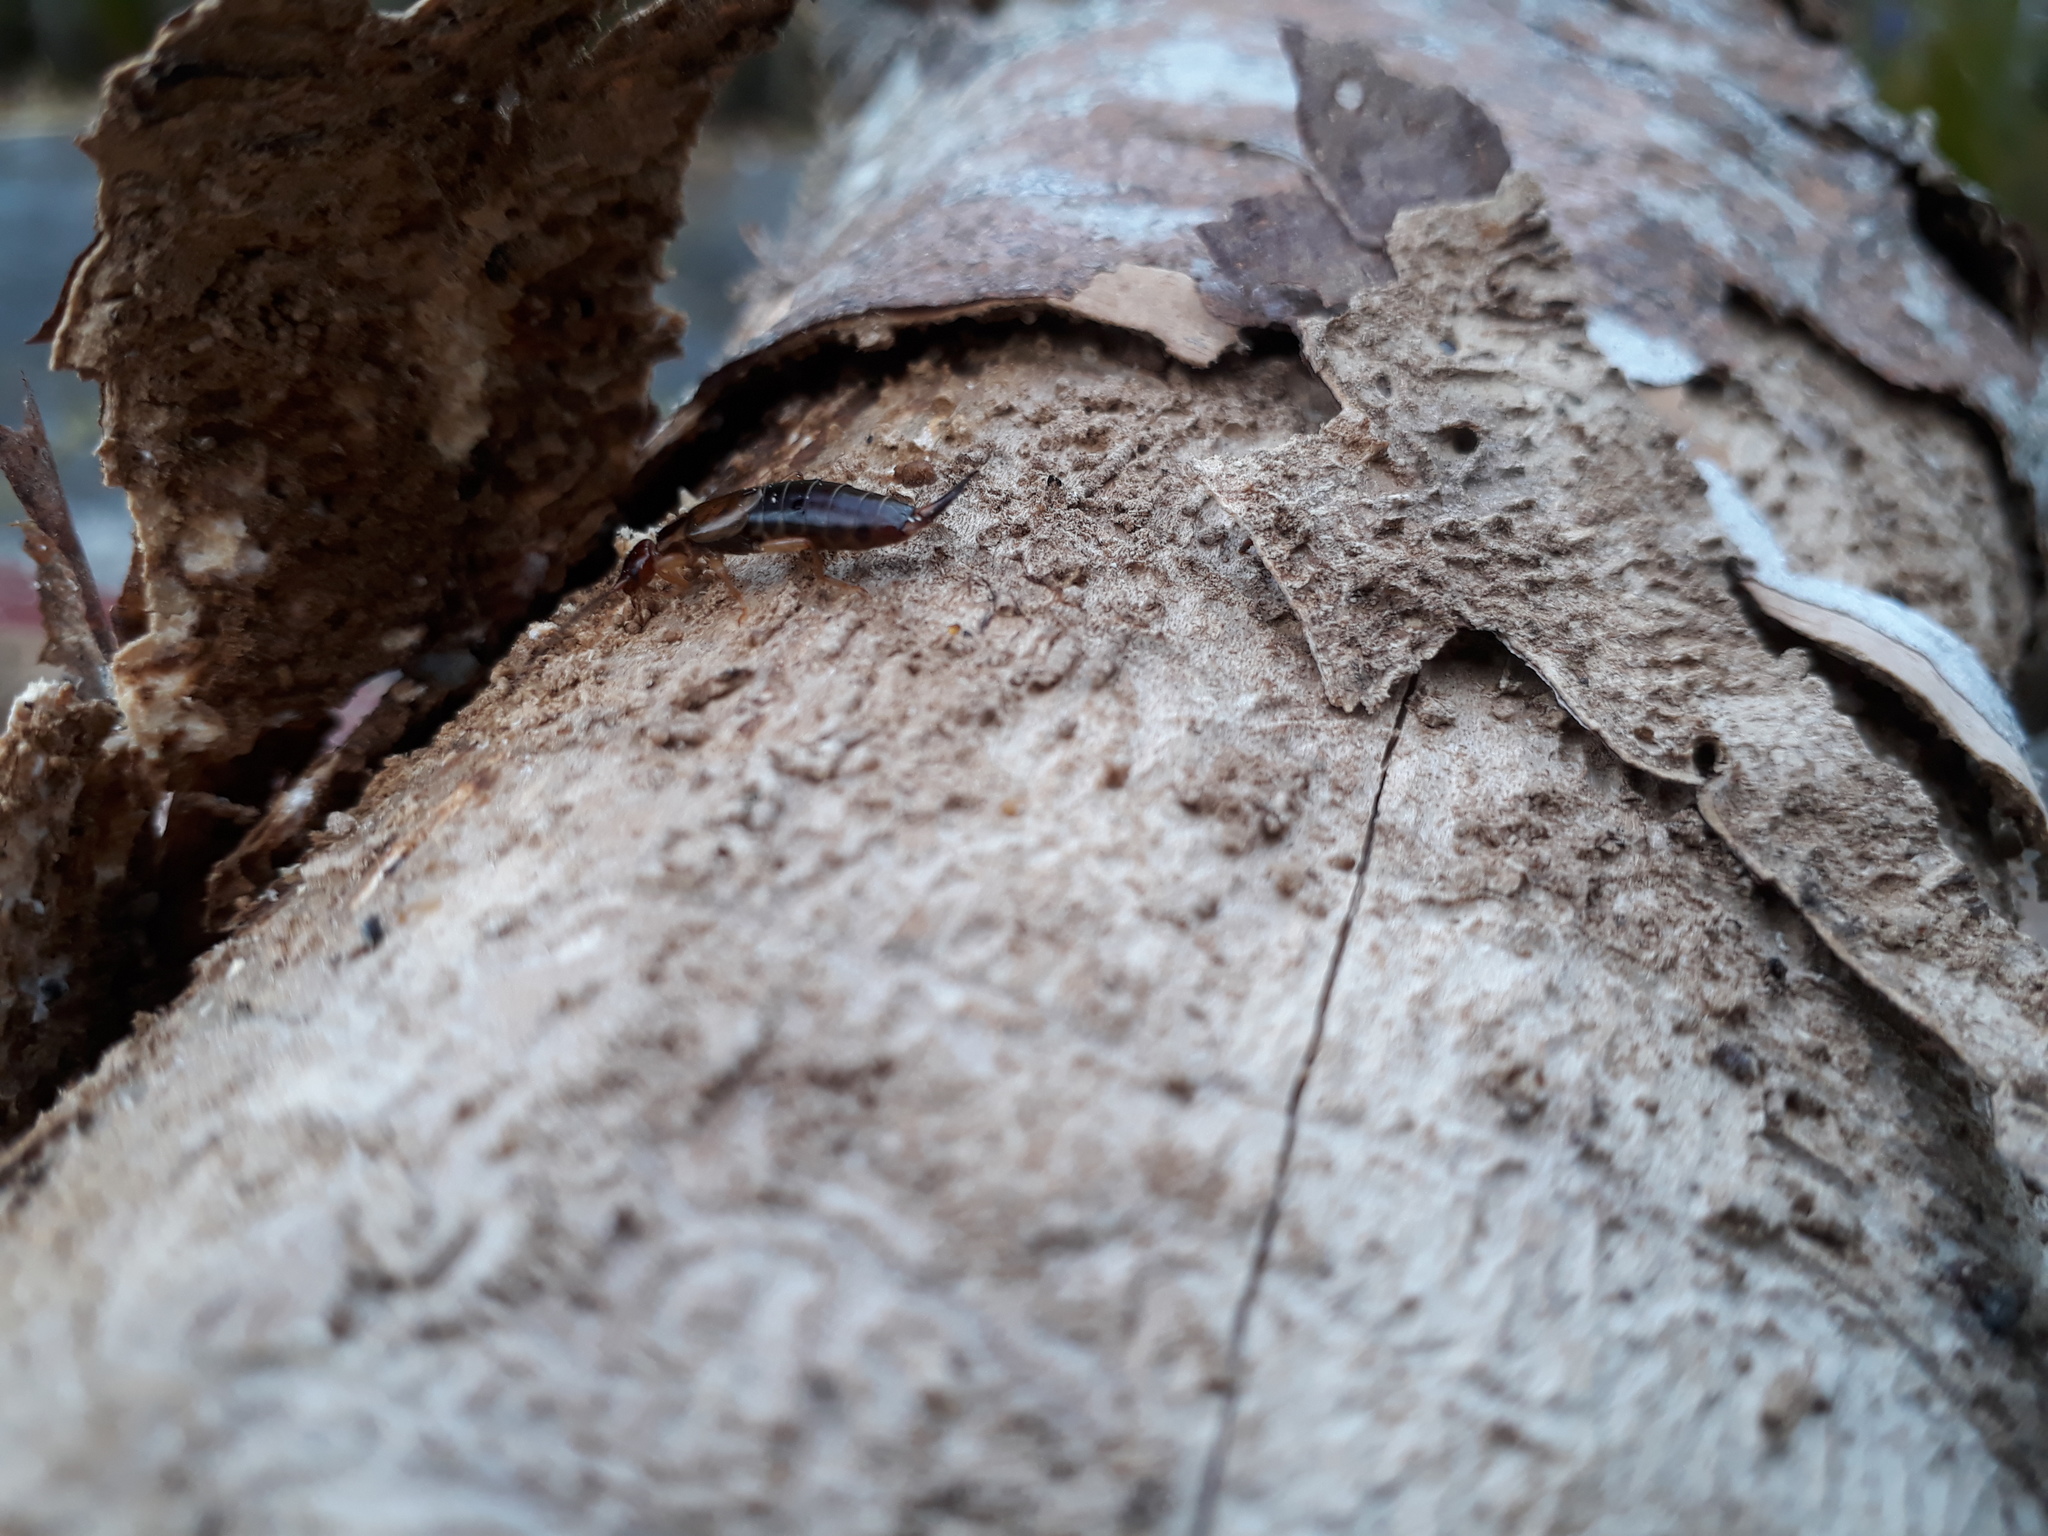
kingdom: Animalia
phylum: Arthropoda
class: Insecta
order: Dermaptera
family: Forficulidae
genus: Forficula
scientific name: Forficula
